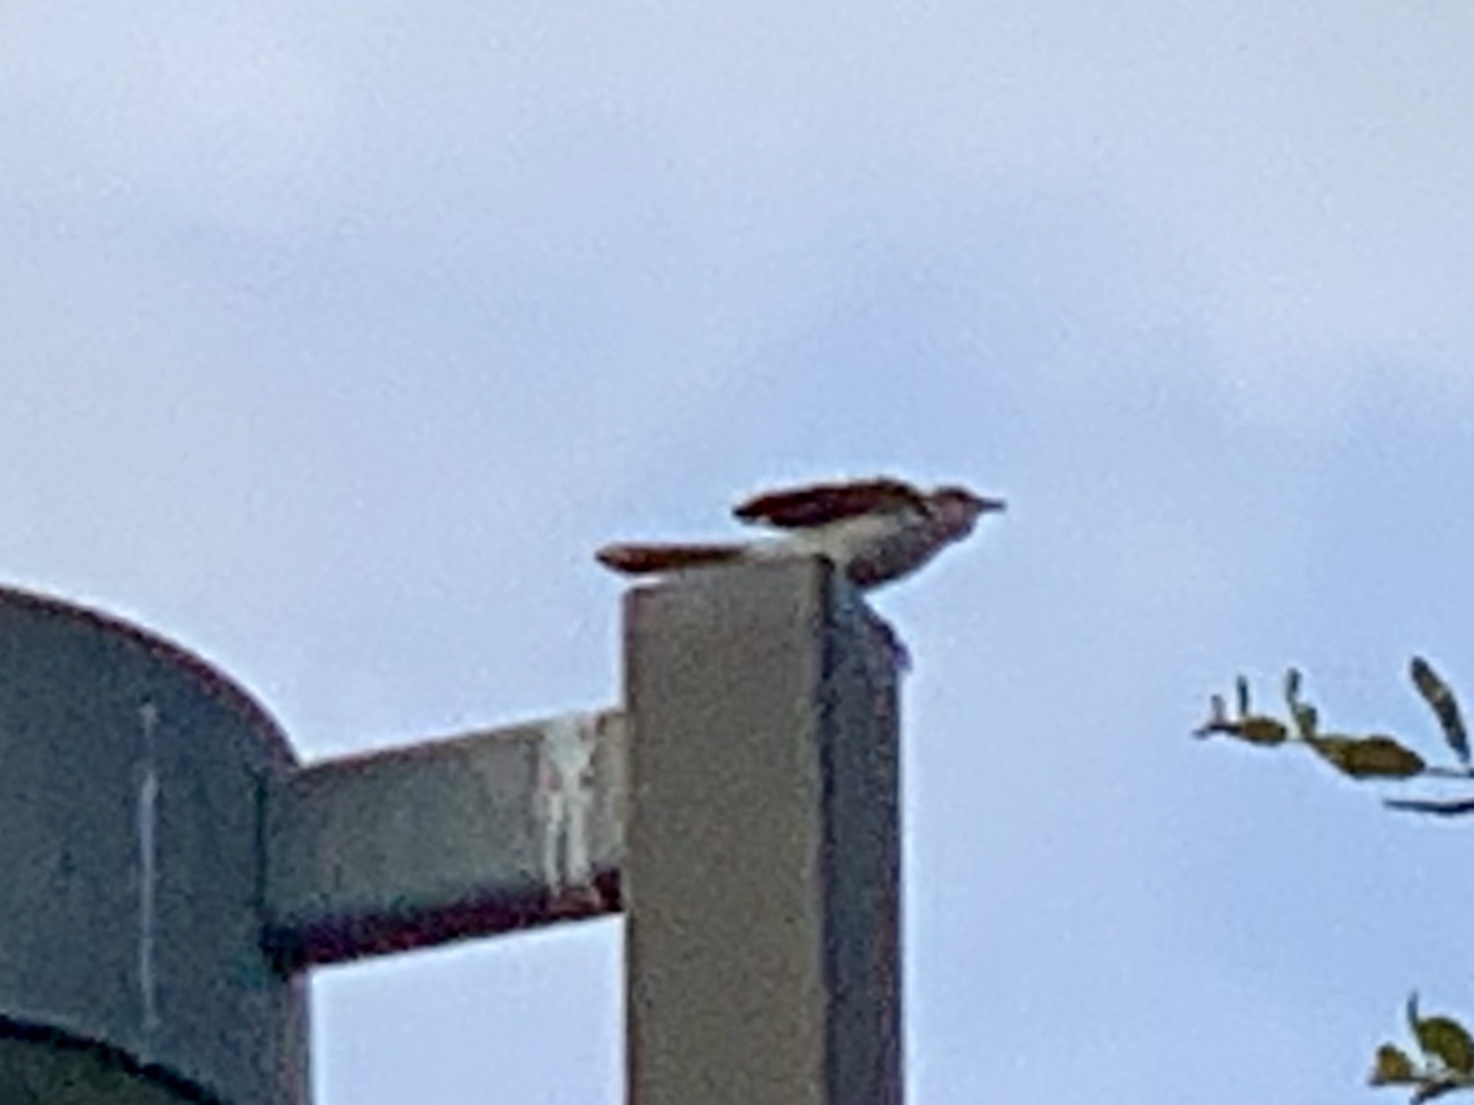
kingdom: Animalia
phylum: Chordata
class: Aves
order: Passeriformes
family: Mimidae
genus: Mimus
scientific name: Mimus polyglottos
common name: Northern mockingbird
